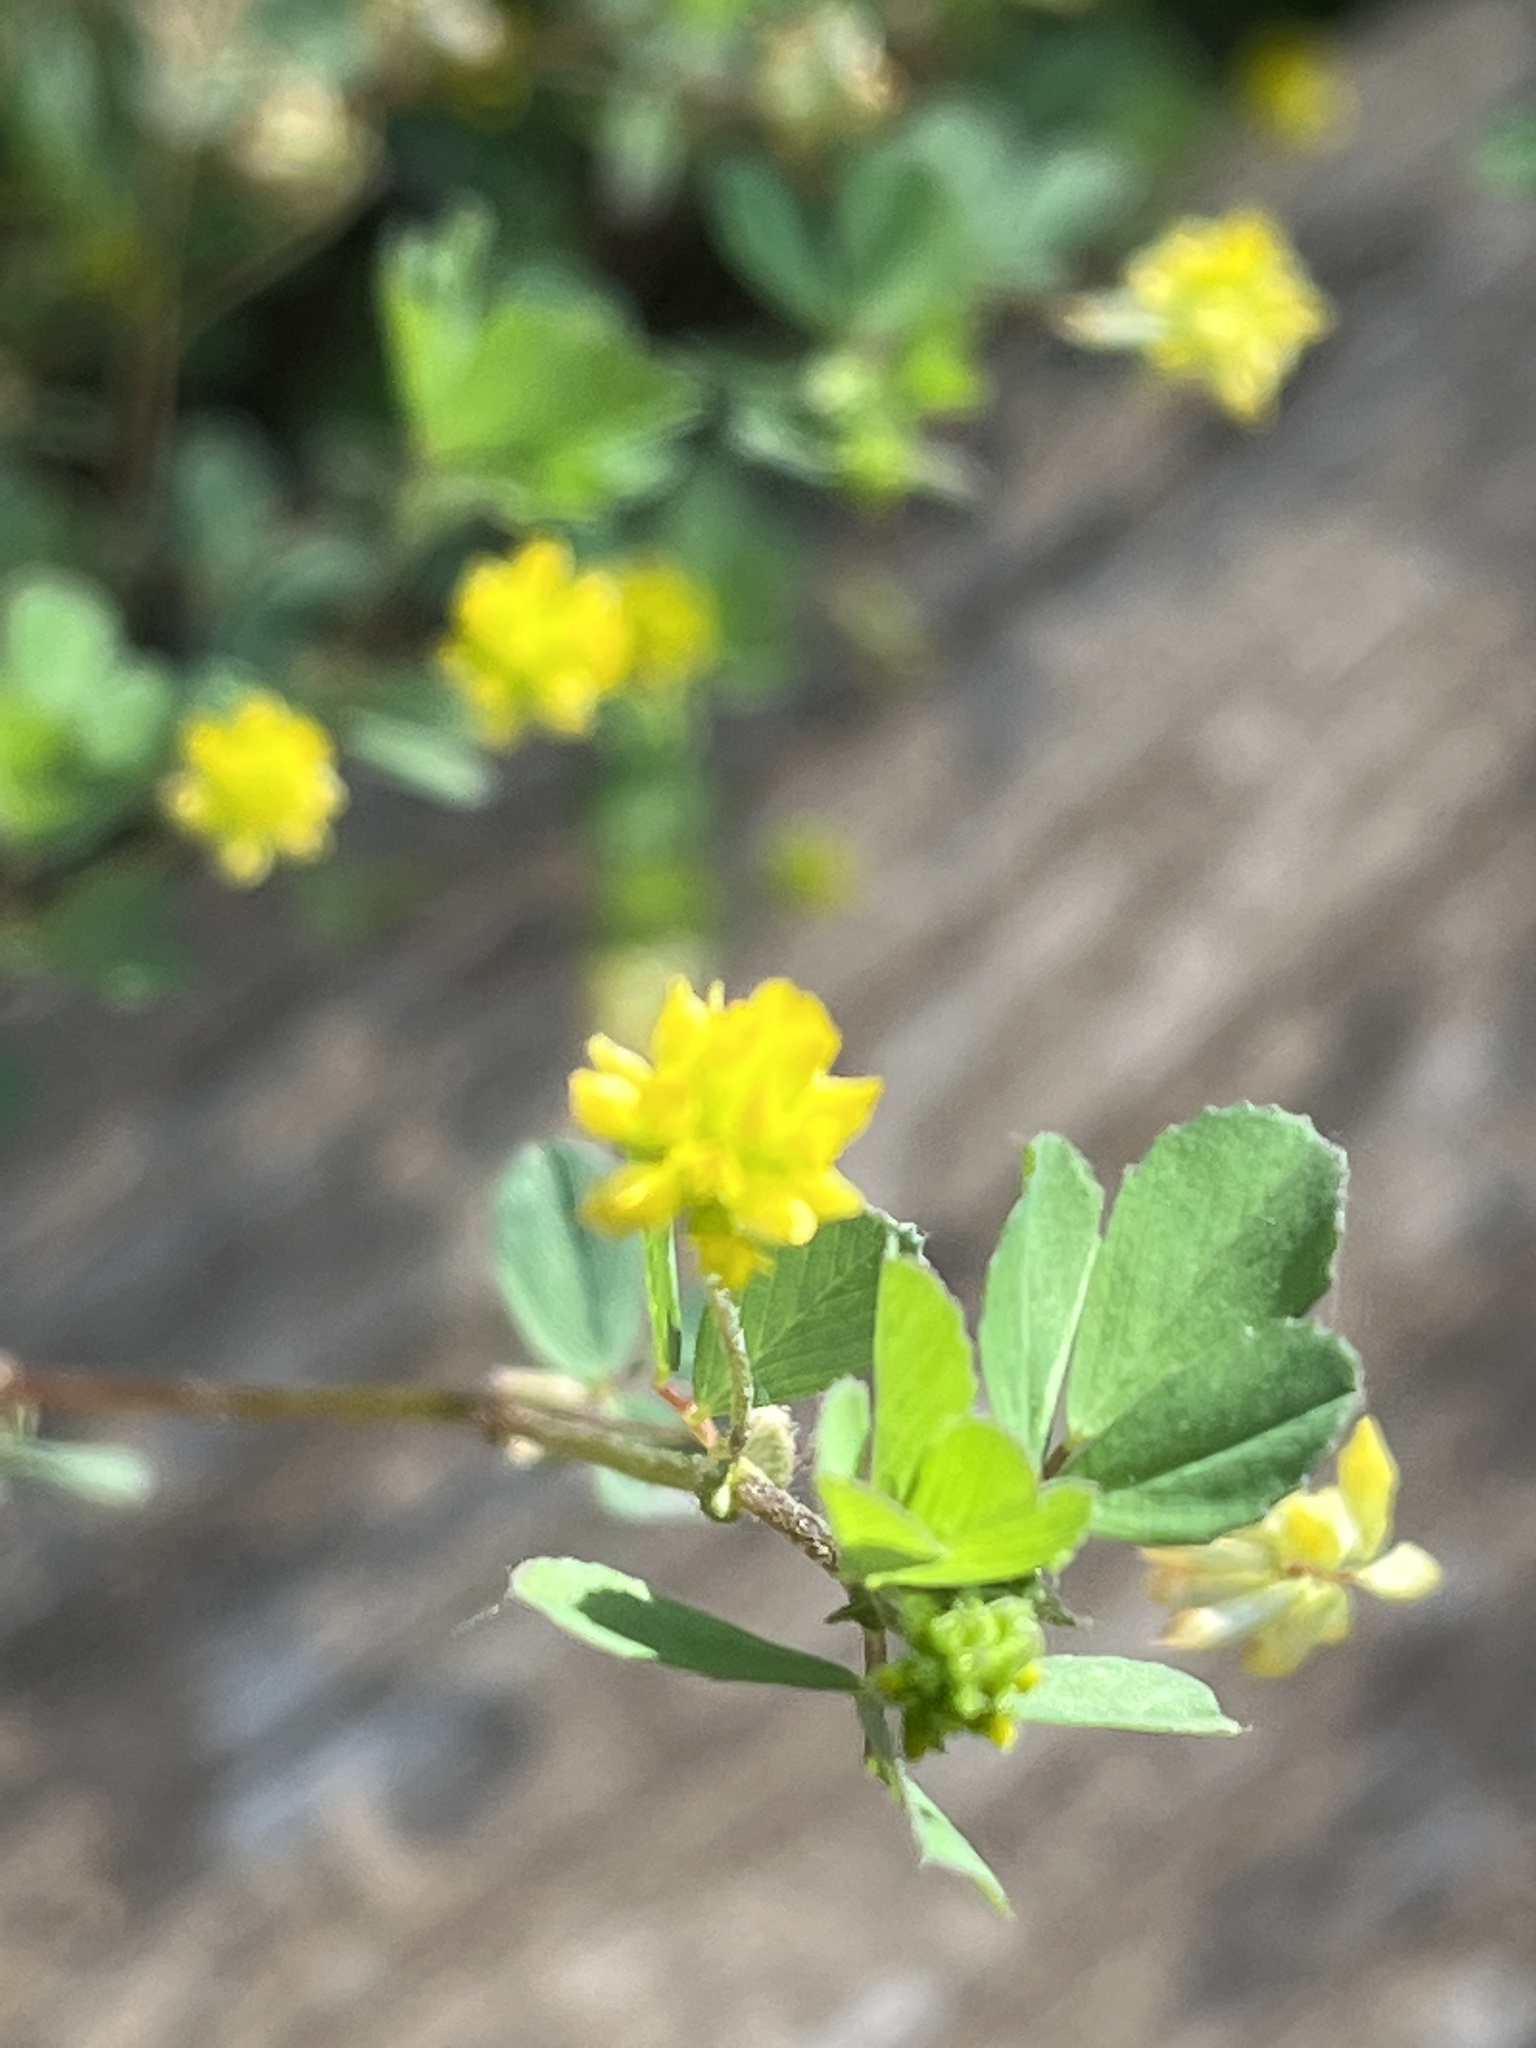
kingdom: Plantae
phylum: Tracheophyta
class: Magnoliopsida
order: Fabales
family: Fabaceae
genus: Trifolium
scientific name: Trifolium dubium
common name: Suckling clover
